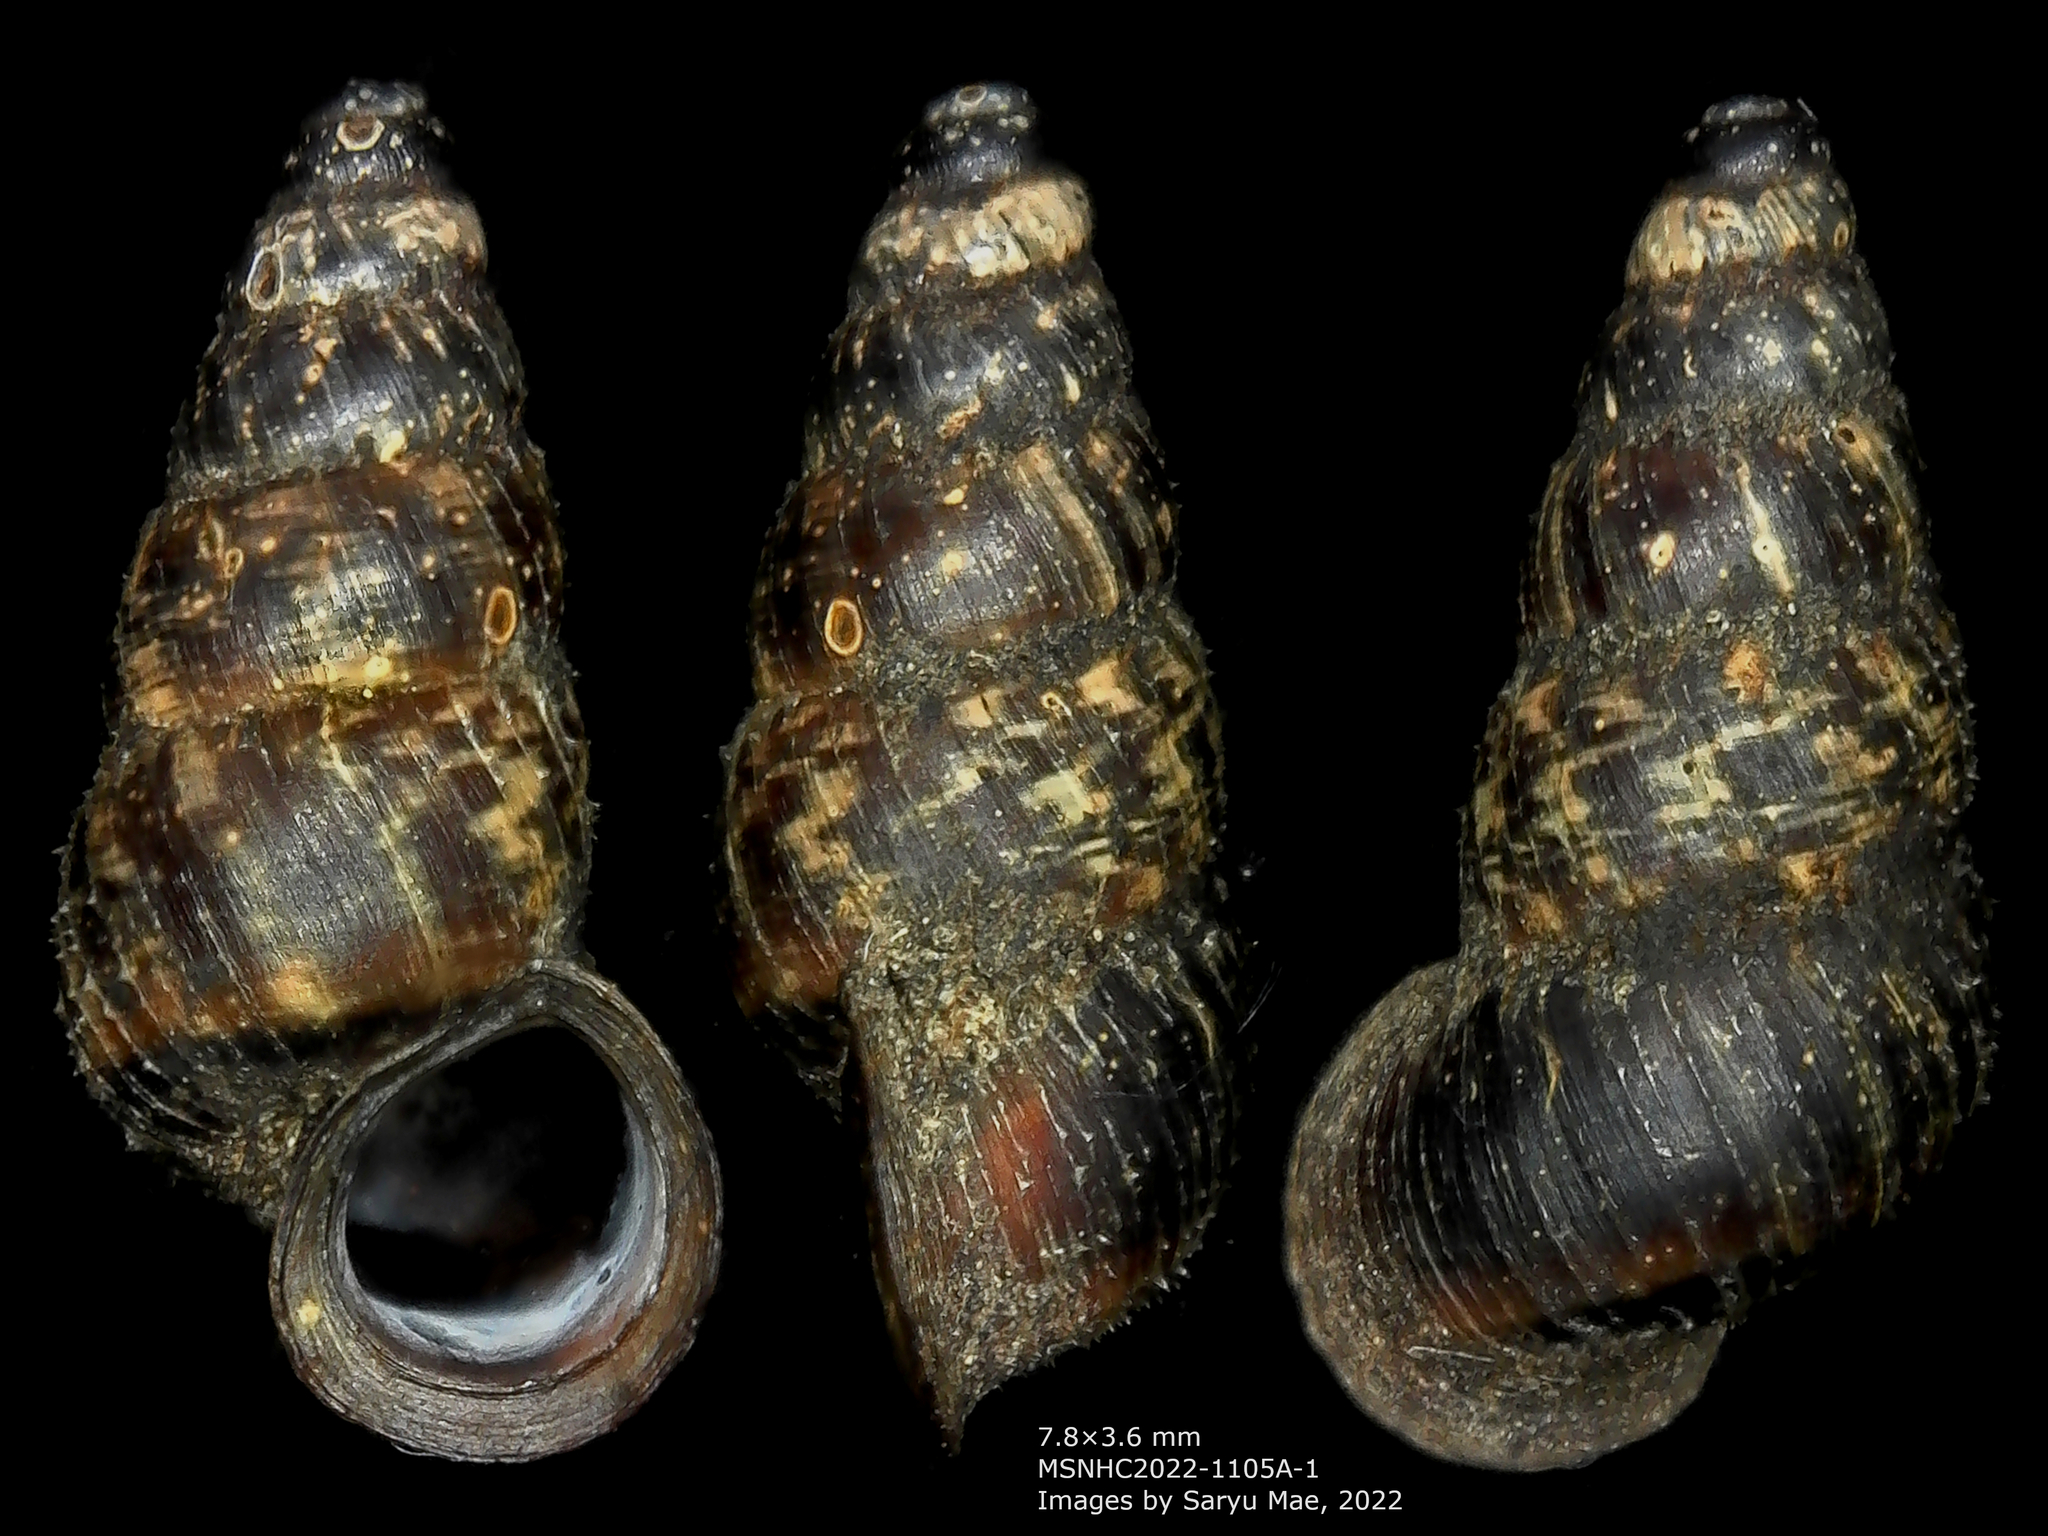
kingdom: Animalia
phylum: Mollusca
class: Gastropoda
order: Architaenioglossa
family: Pupinidae
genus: Liarea
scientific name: Liarea turriculata
